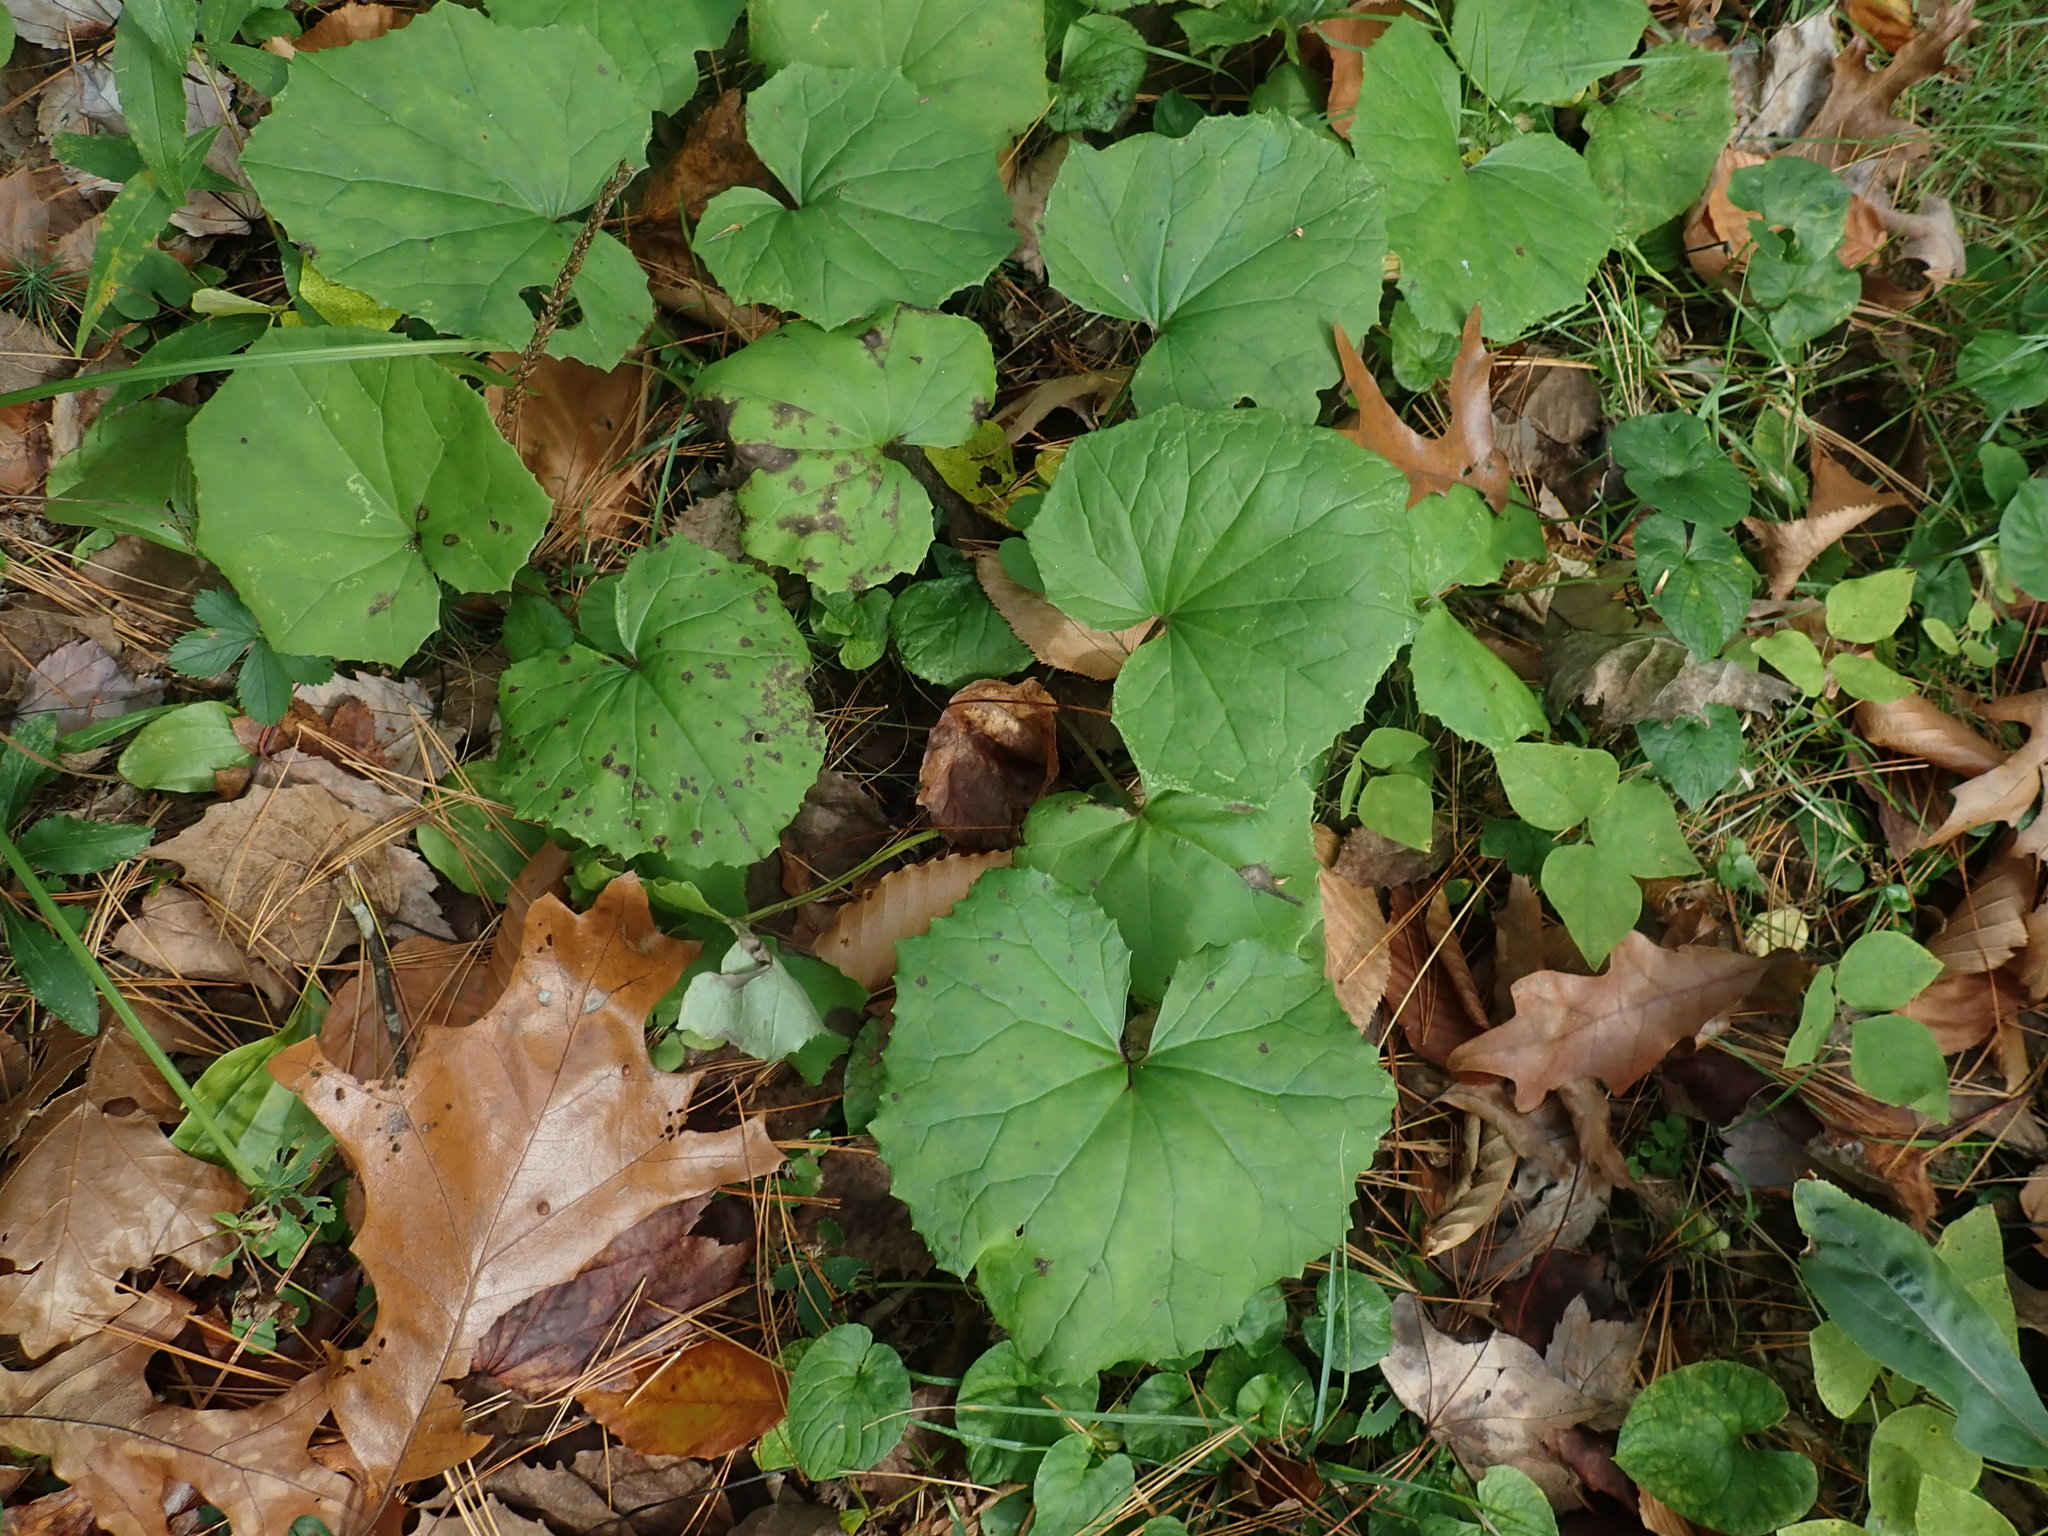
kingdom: Plantae
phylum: Tracheophyta
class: Magnoliopsida
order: Asterales
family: Asteraceae
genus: Tussilago
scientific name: Tussilago farfara
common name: Coltsfoot
